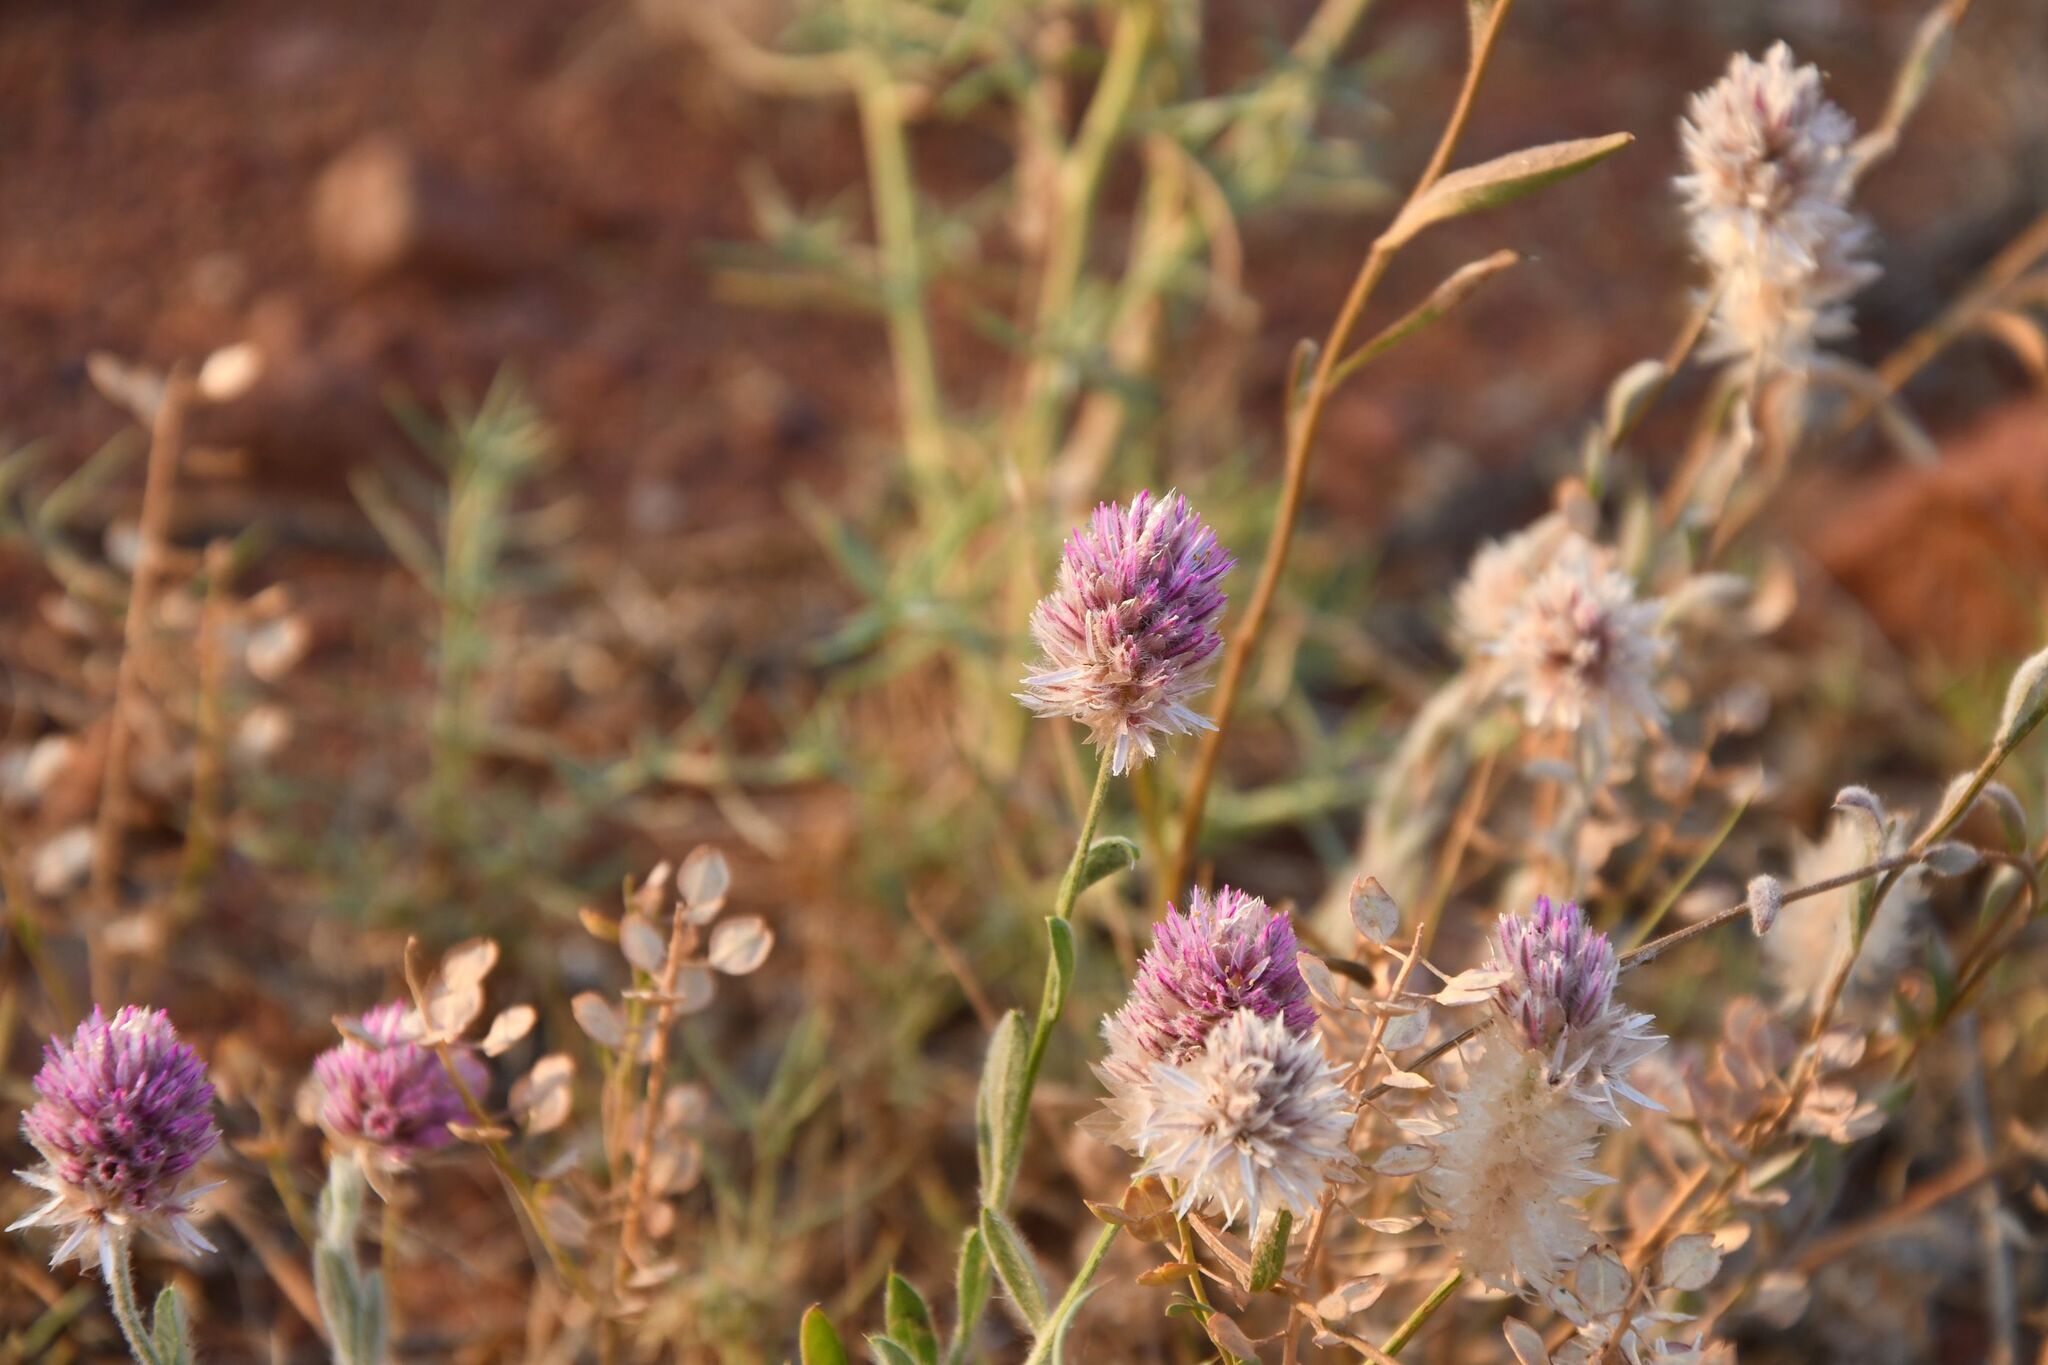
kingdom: Plantae
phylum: Tracheophyta
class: Magnoliopsida
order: Caryophyllales
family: Amaranthaceae
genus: Ptilotus
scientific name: Ptilotus helipteroides
